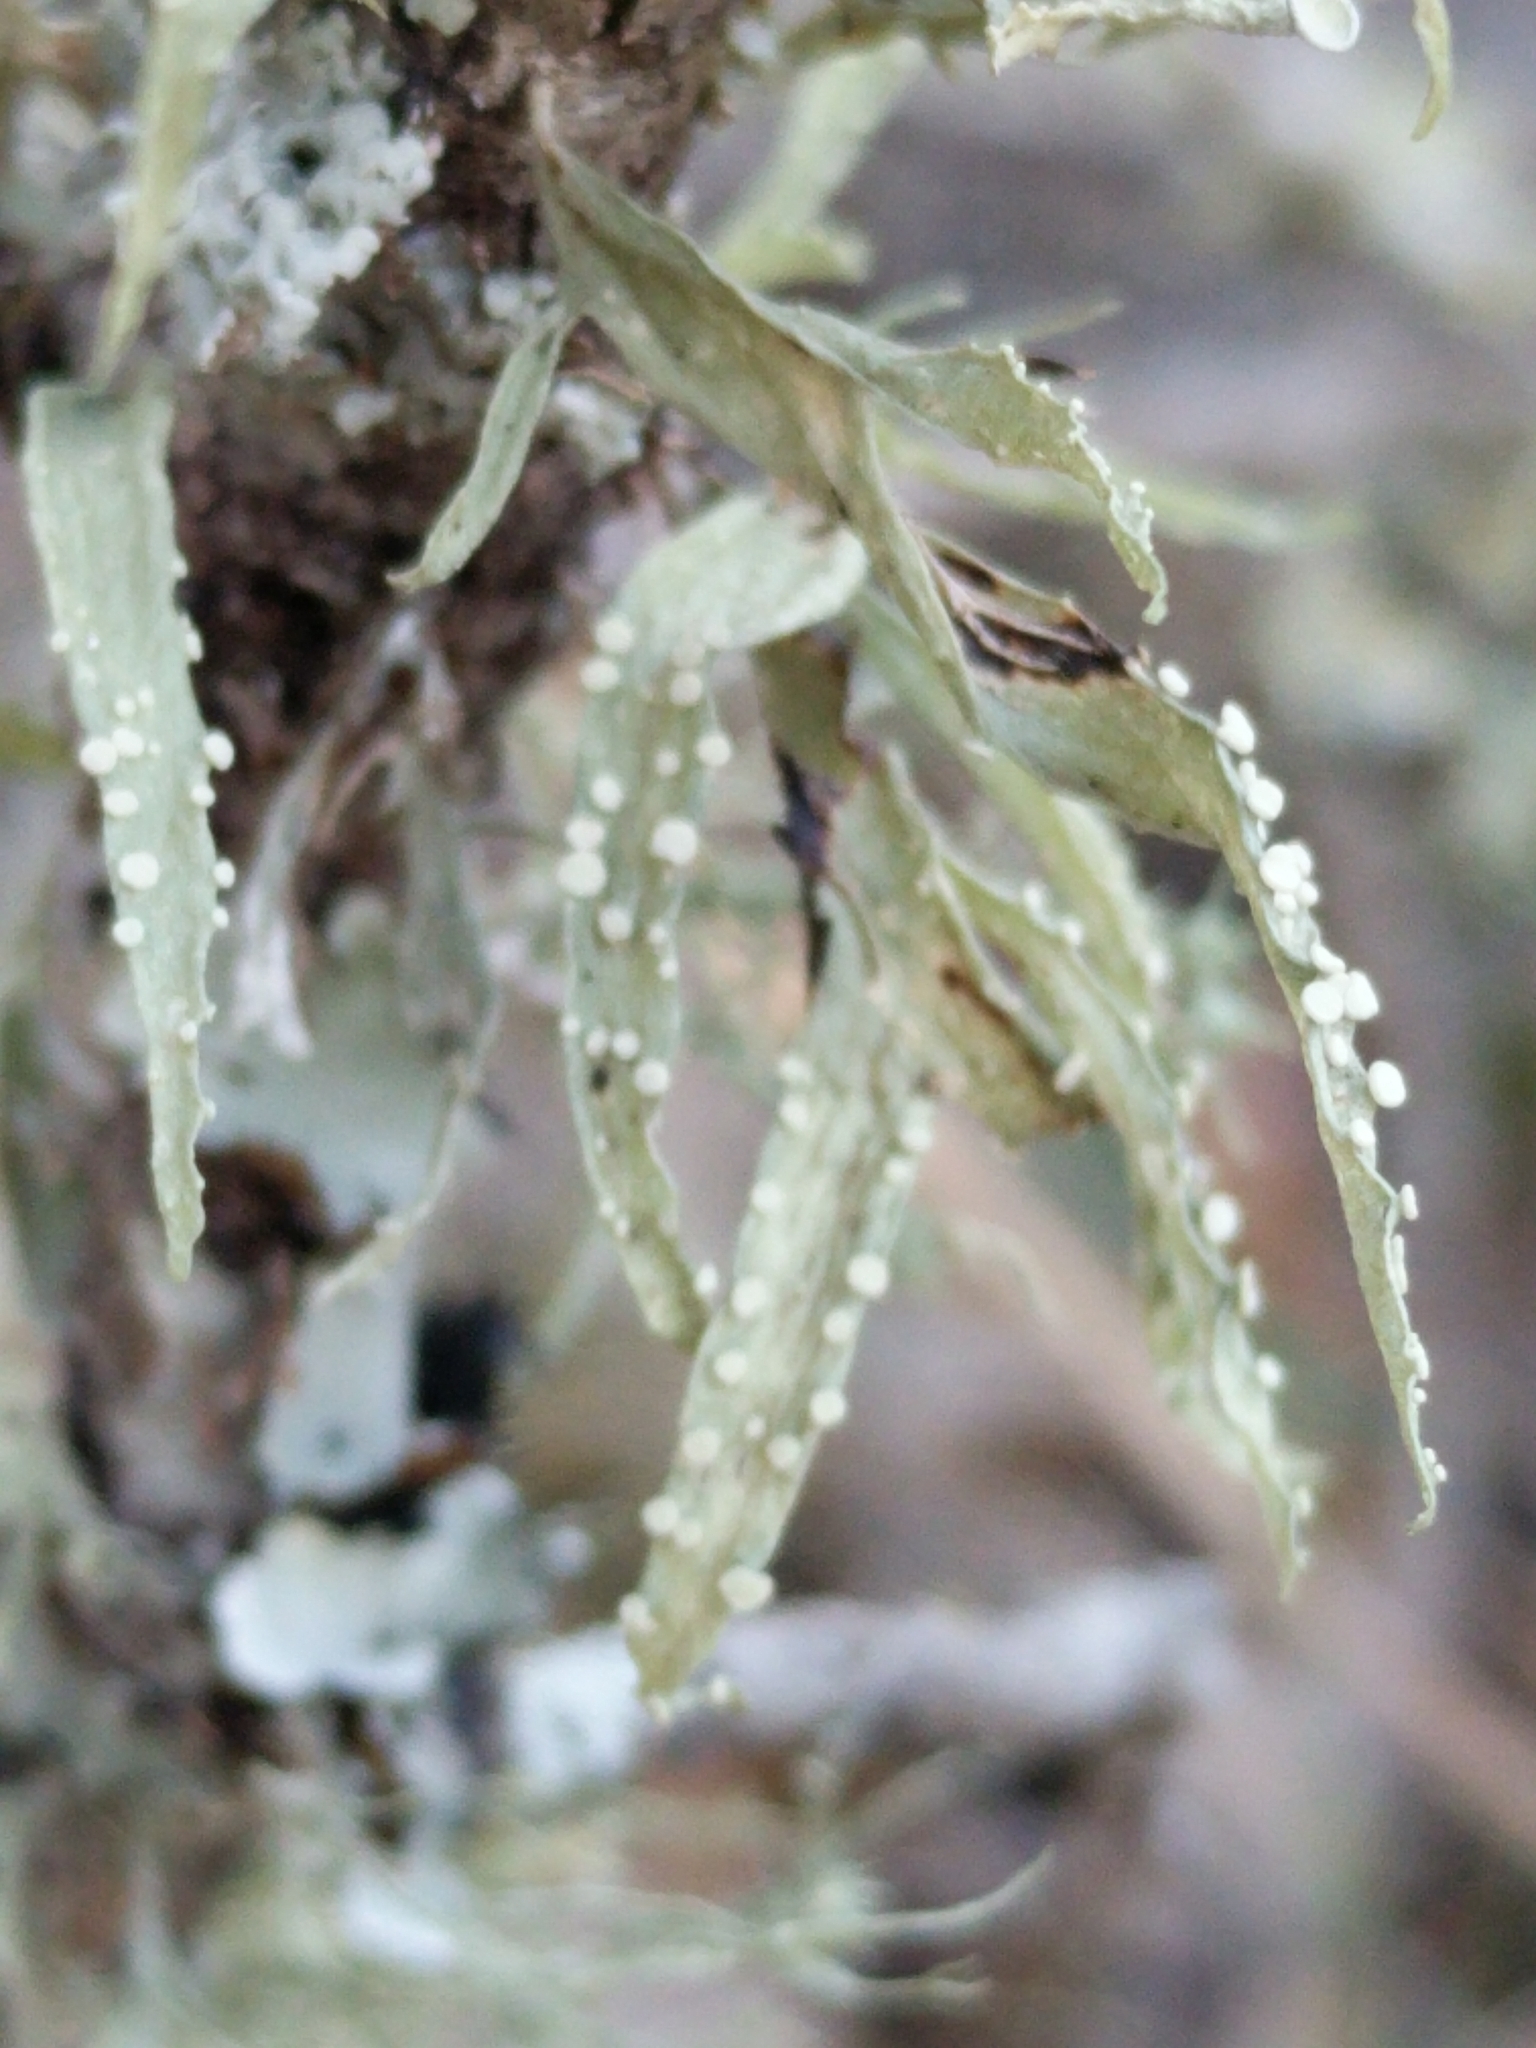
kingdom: Fungi
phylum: Ascomycota
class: Lecanoromycetes
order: Lecanorales
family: Ramalinaceae
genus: Ramalina
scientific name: Ramalina celastri
